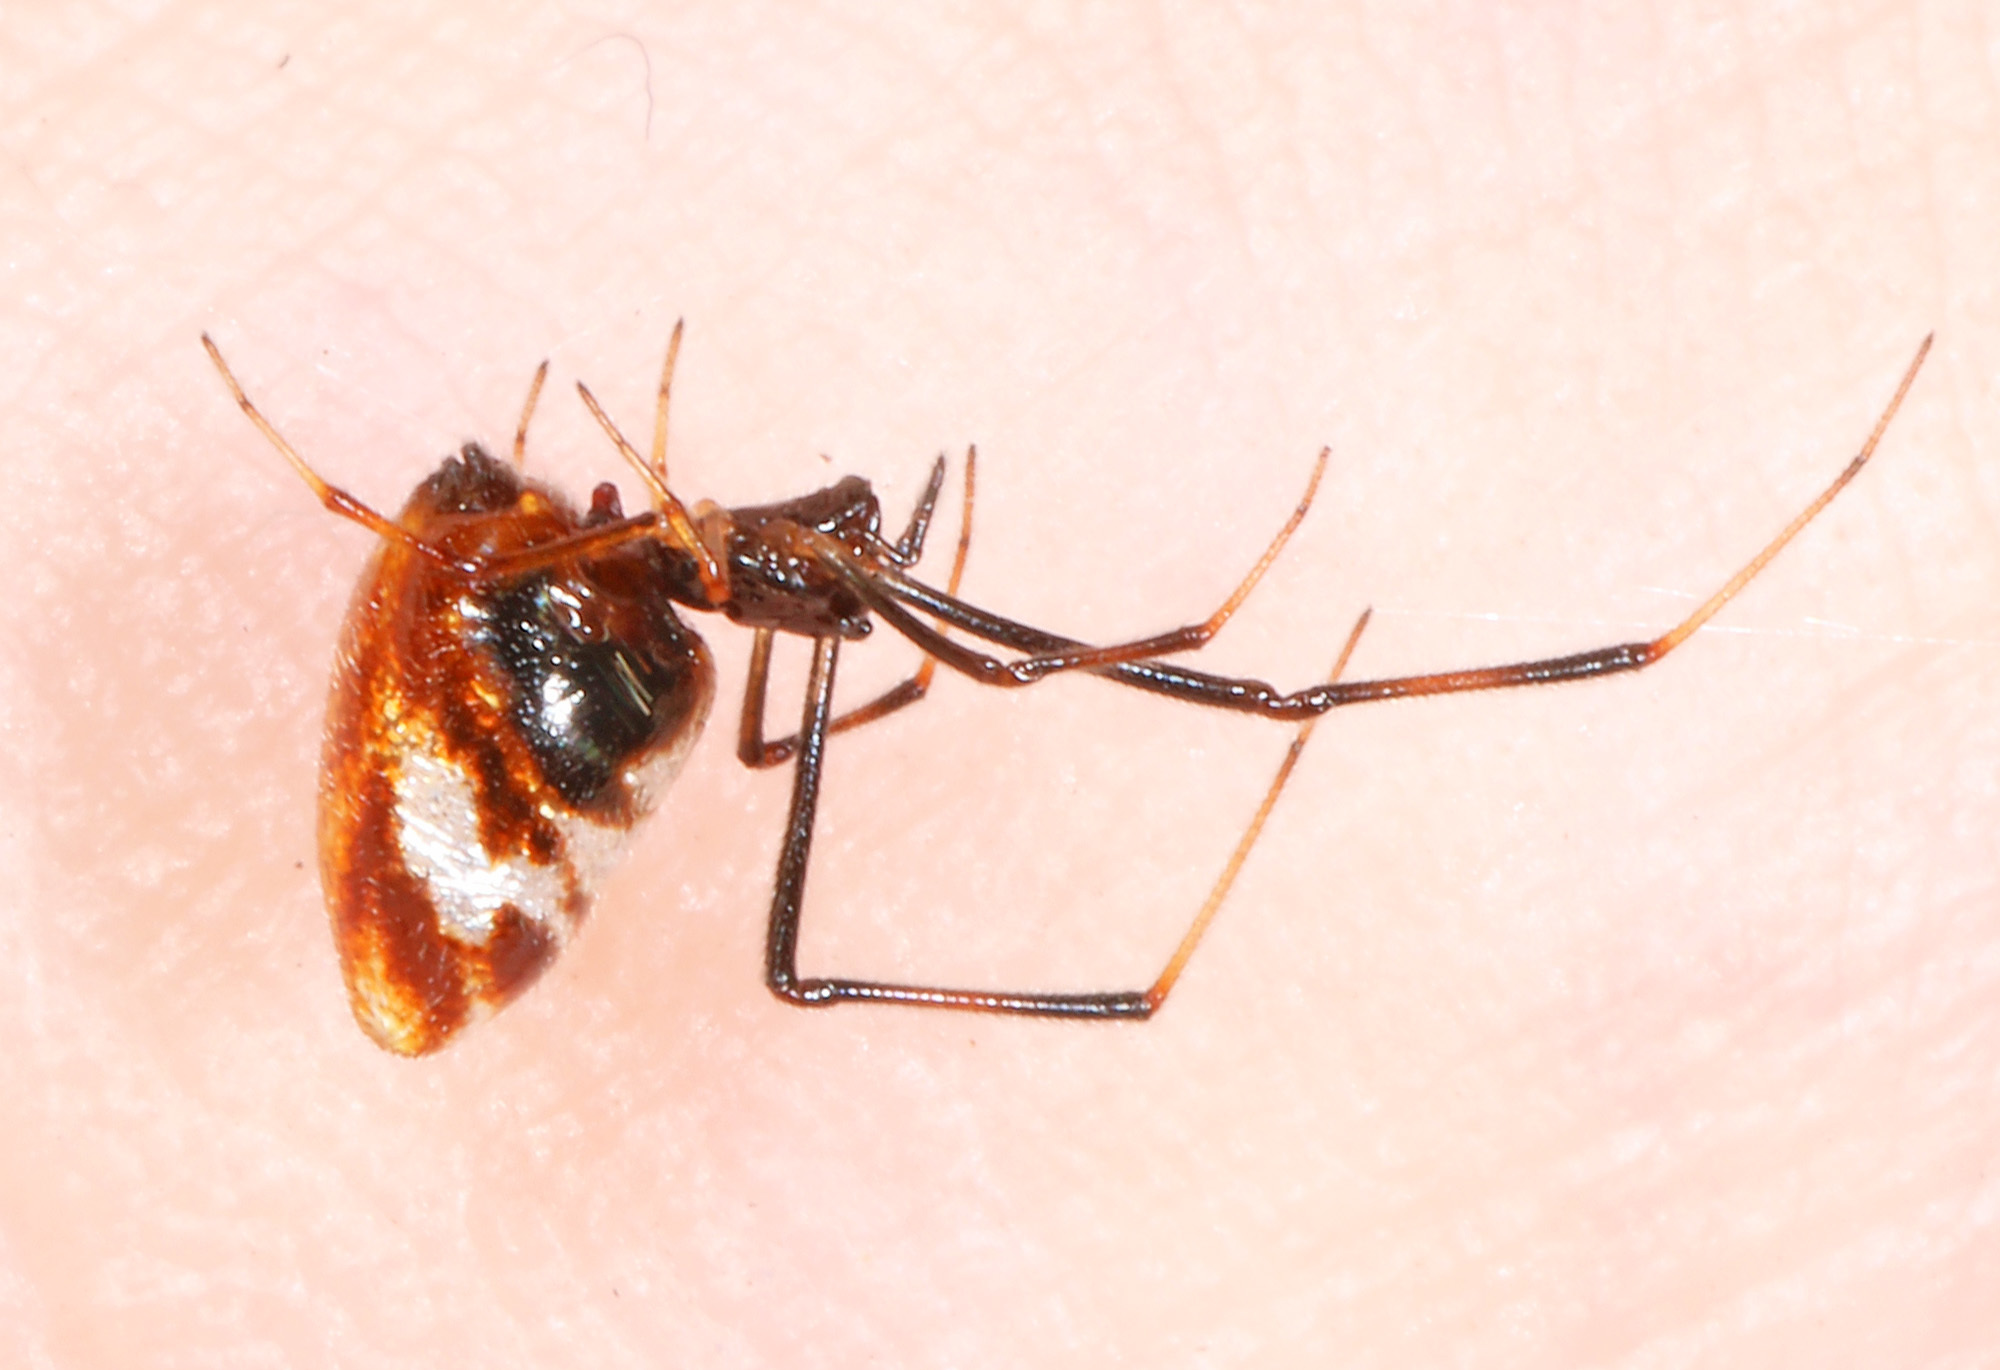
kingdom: Animalia
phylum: Arthropoda
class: Arachnida
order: Araneae
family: Theridiidae
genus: Argyrodes
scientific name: Argyrodes elevatus
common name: Cobweb spiders
